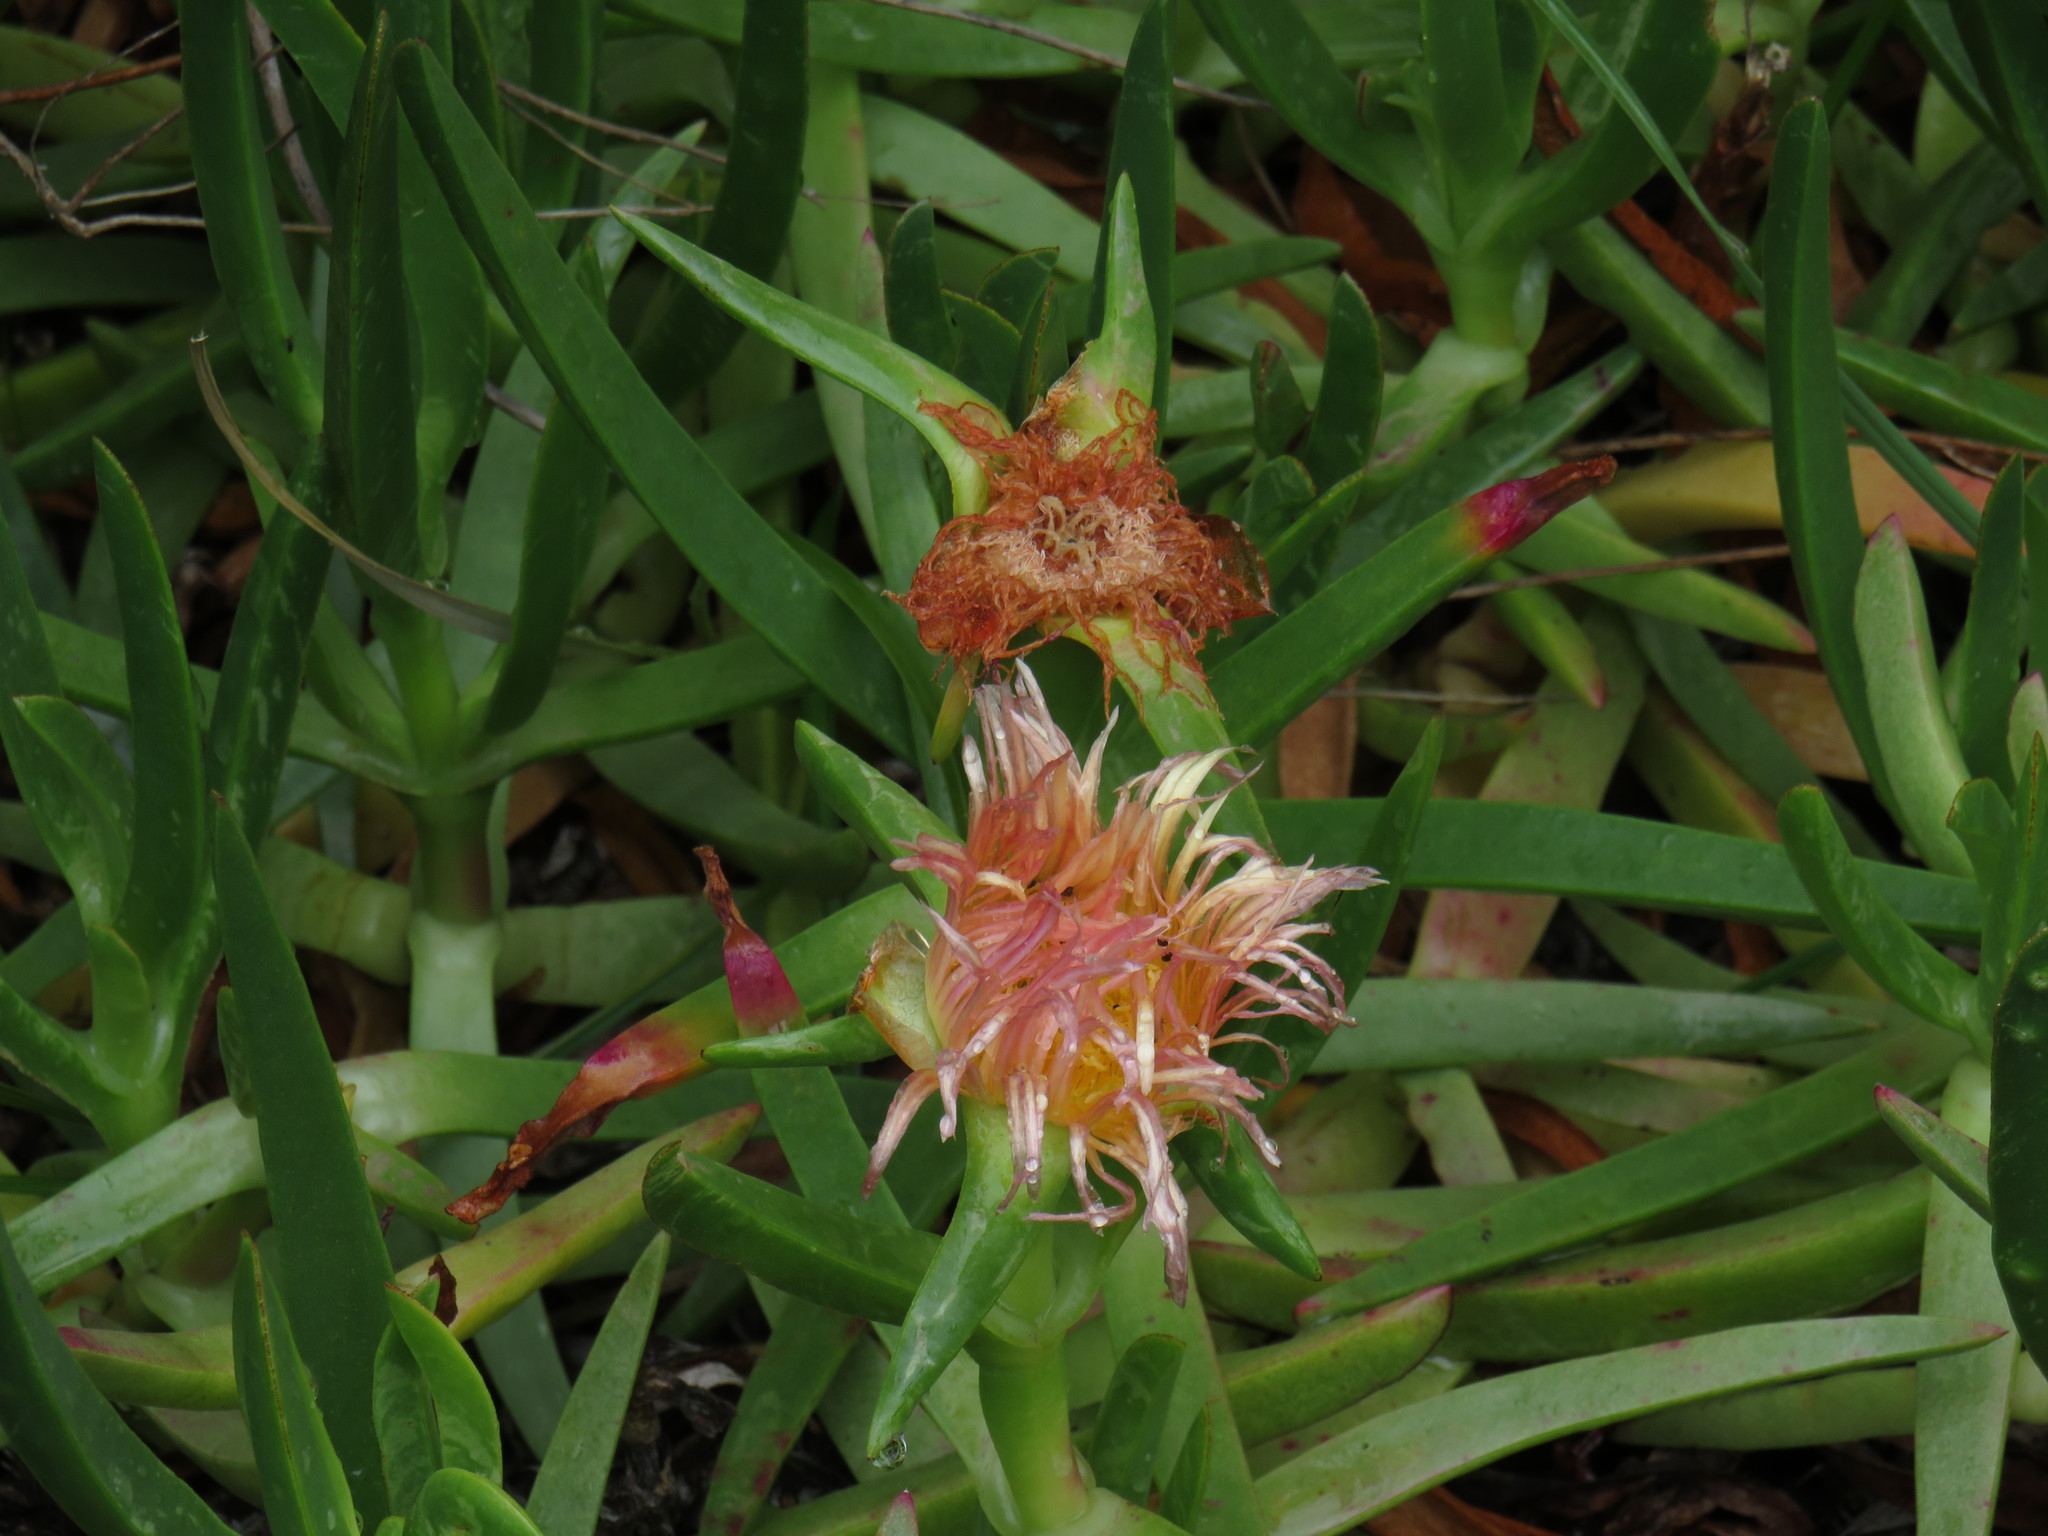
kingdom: Plantae
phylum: Tracheophyta
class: Magnoliopsida
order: Caryophyllales
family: Aizoaceae
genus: Carpobrotus
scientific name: Carpobrotus edulis
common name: Hottentot-fig
